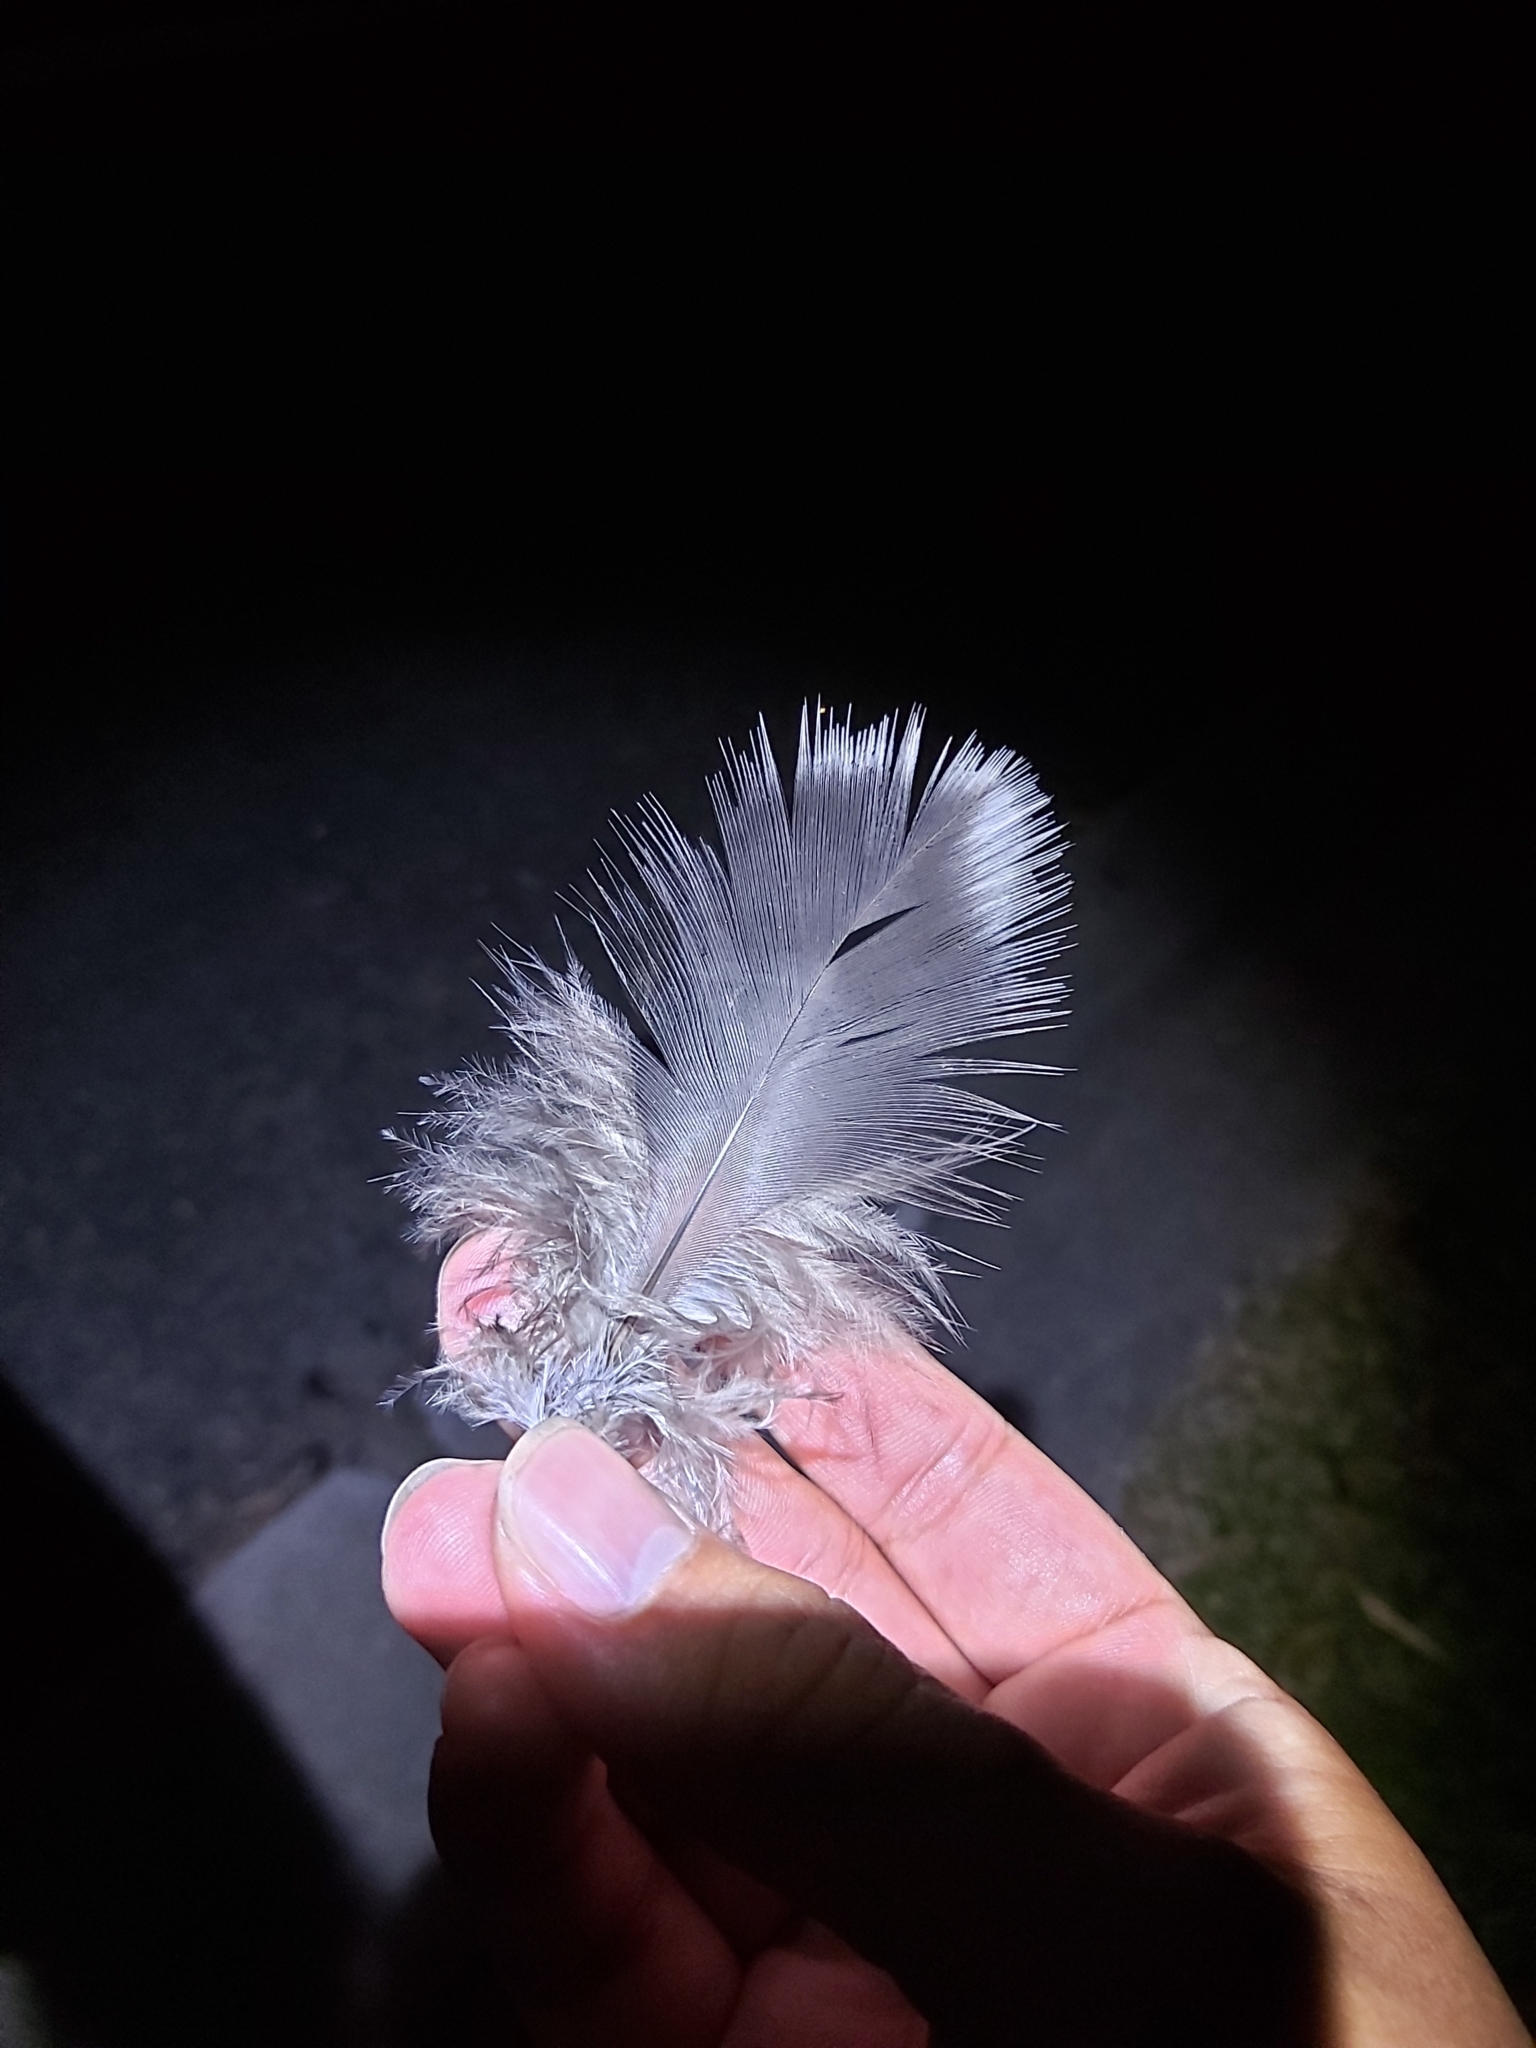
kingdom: Animalia
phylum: Chordata
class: Aves
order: Galliformes
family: Megapodiidae
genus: Alectura
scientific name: Alectura lathami
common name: Australian brushturkey
